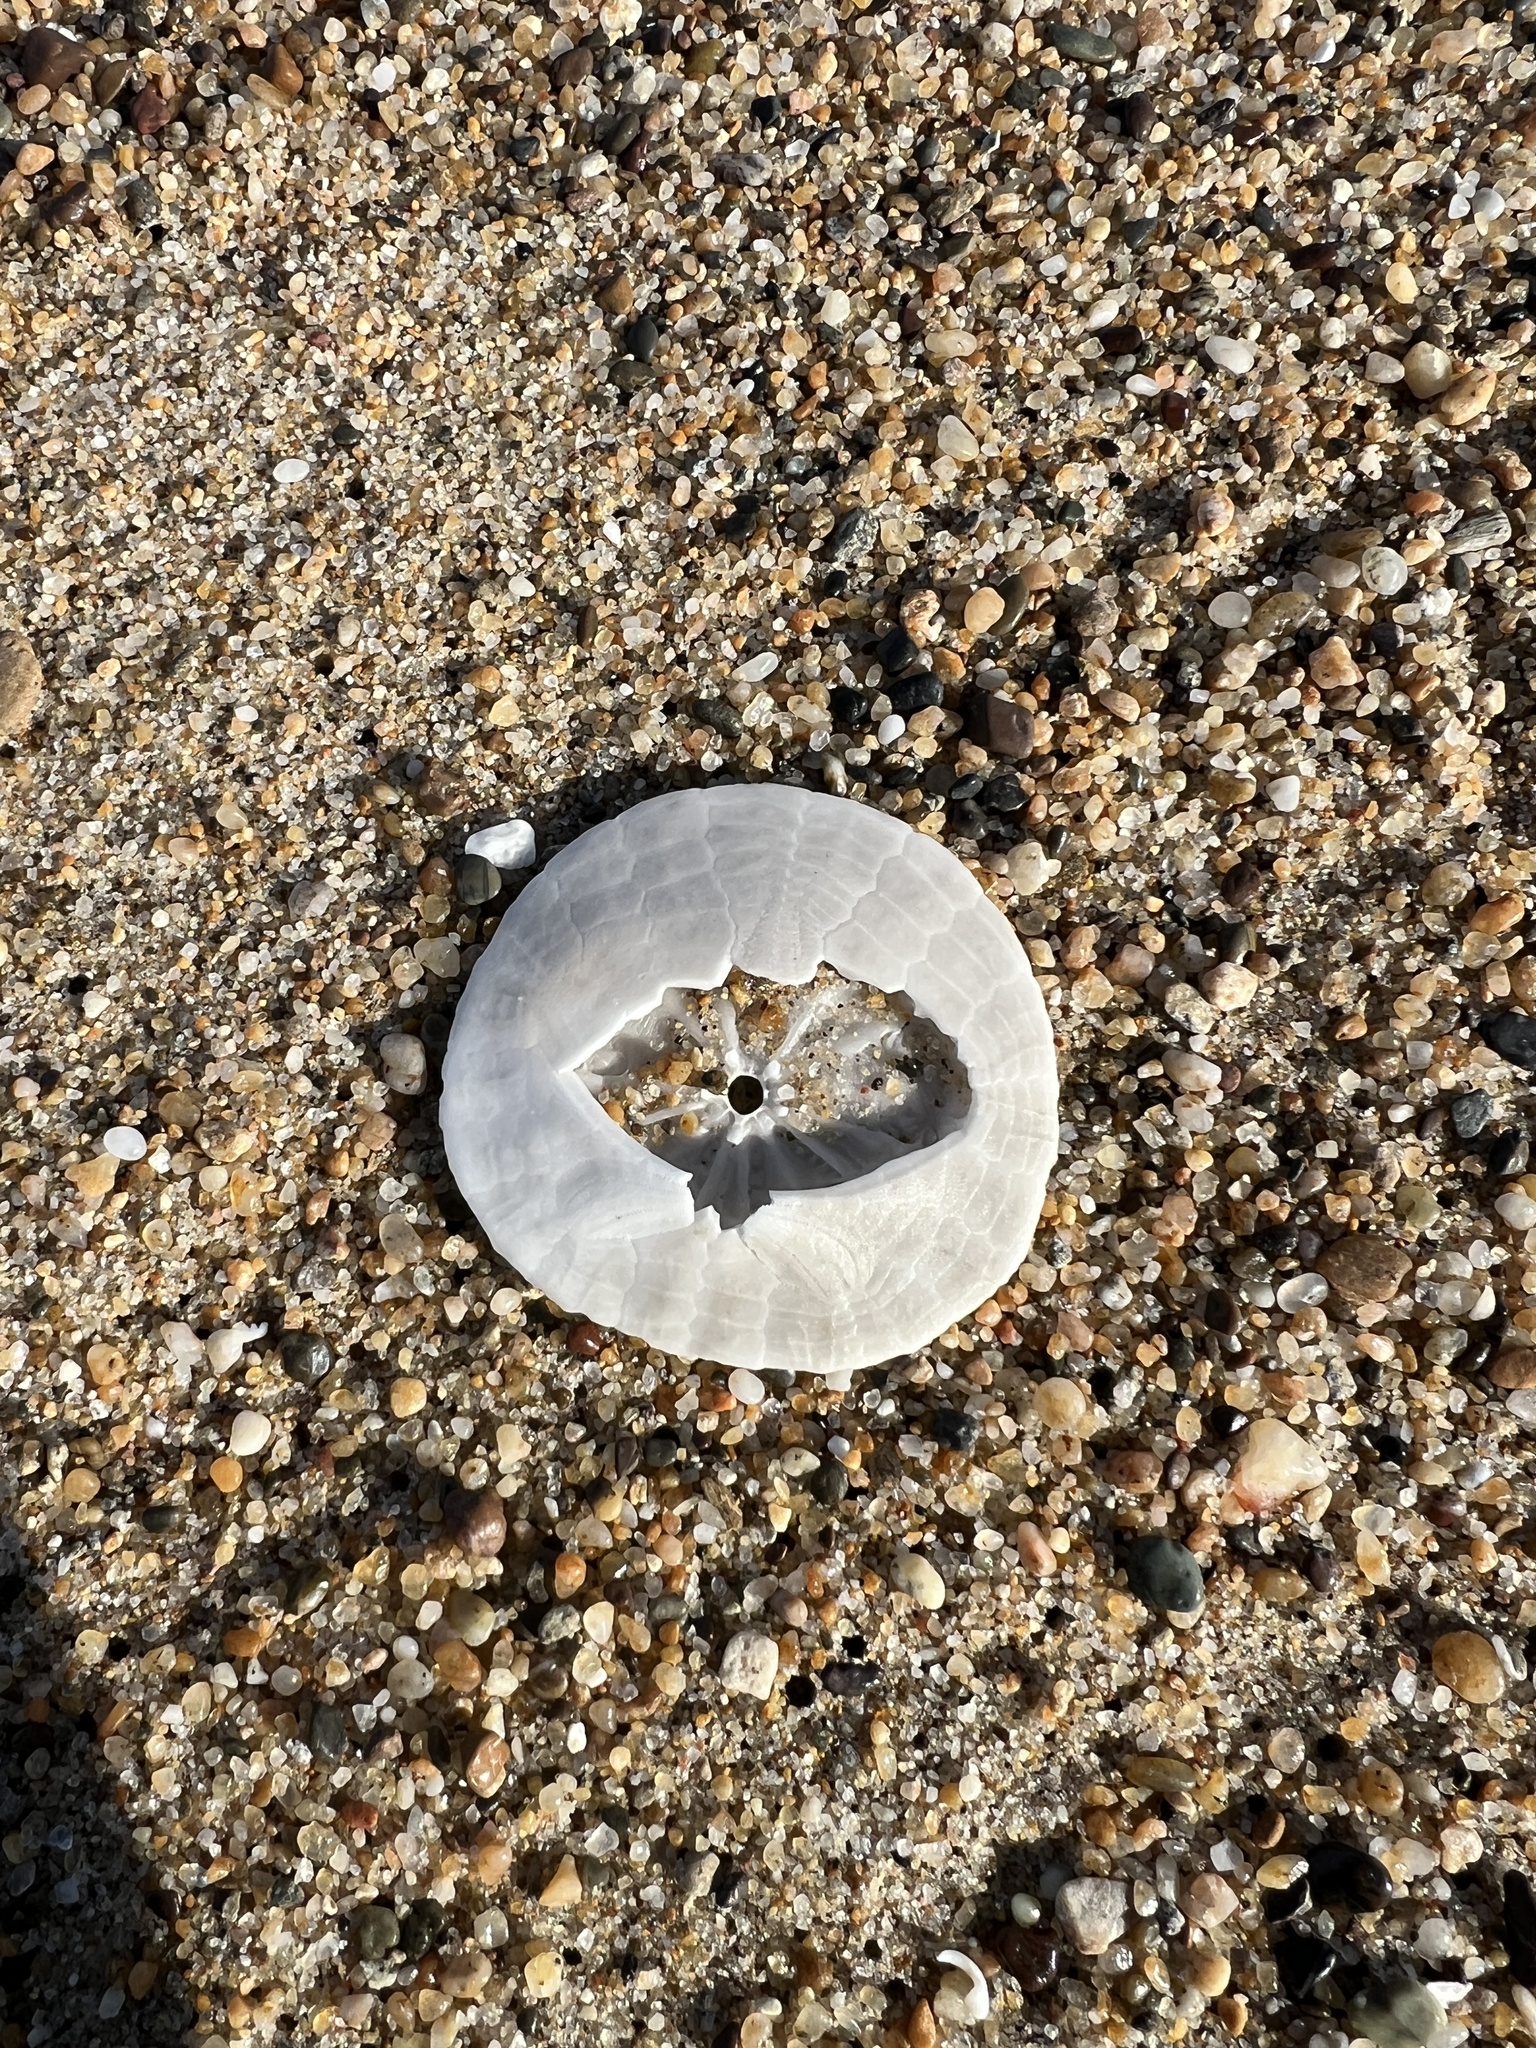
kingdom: Animalia
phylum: Echinodermata
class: Echinoidea
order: Echinolampadacea
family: Dendrasteridae
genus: Dendraster
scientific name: Dendraster excentricus
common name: Eccentric sand dollar sea urchin
